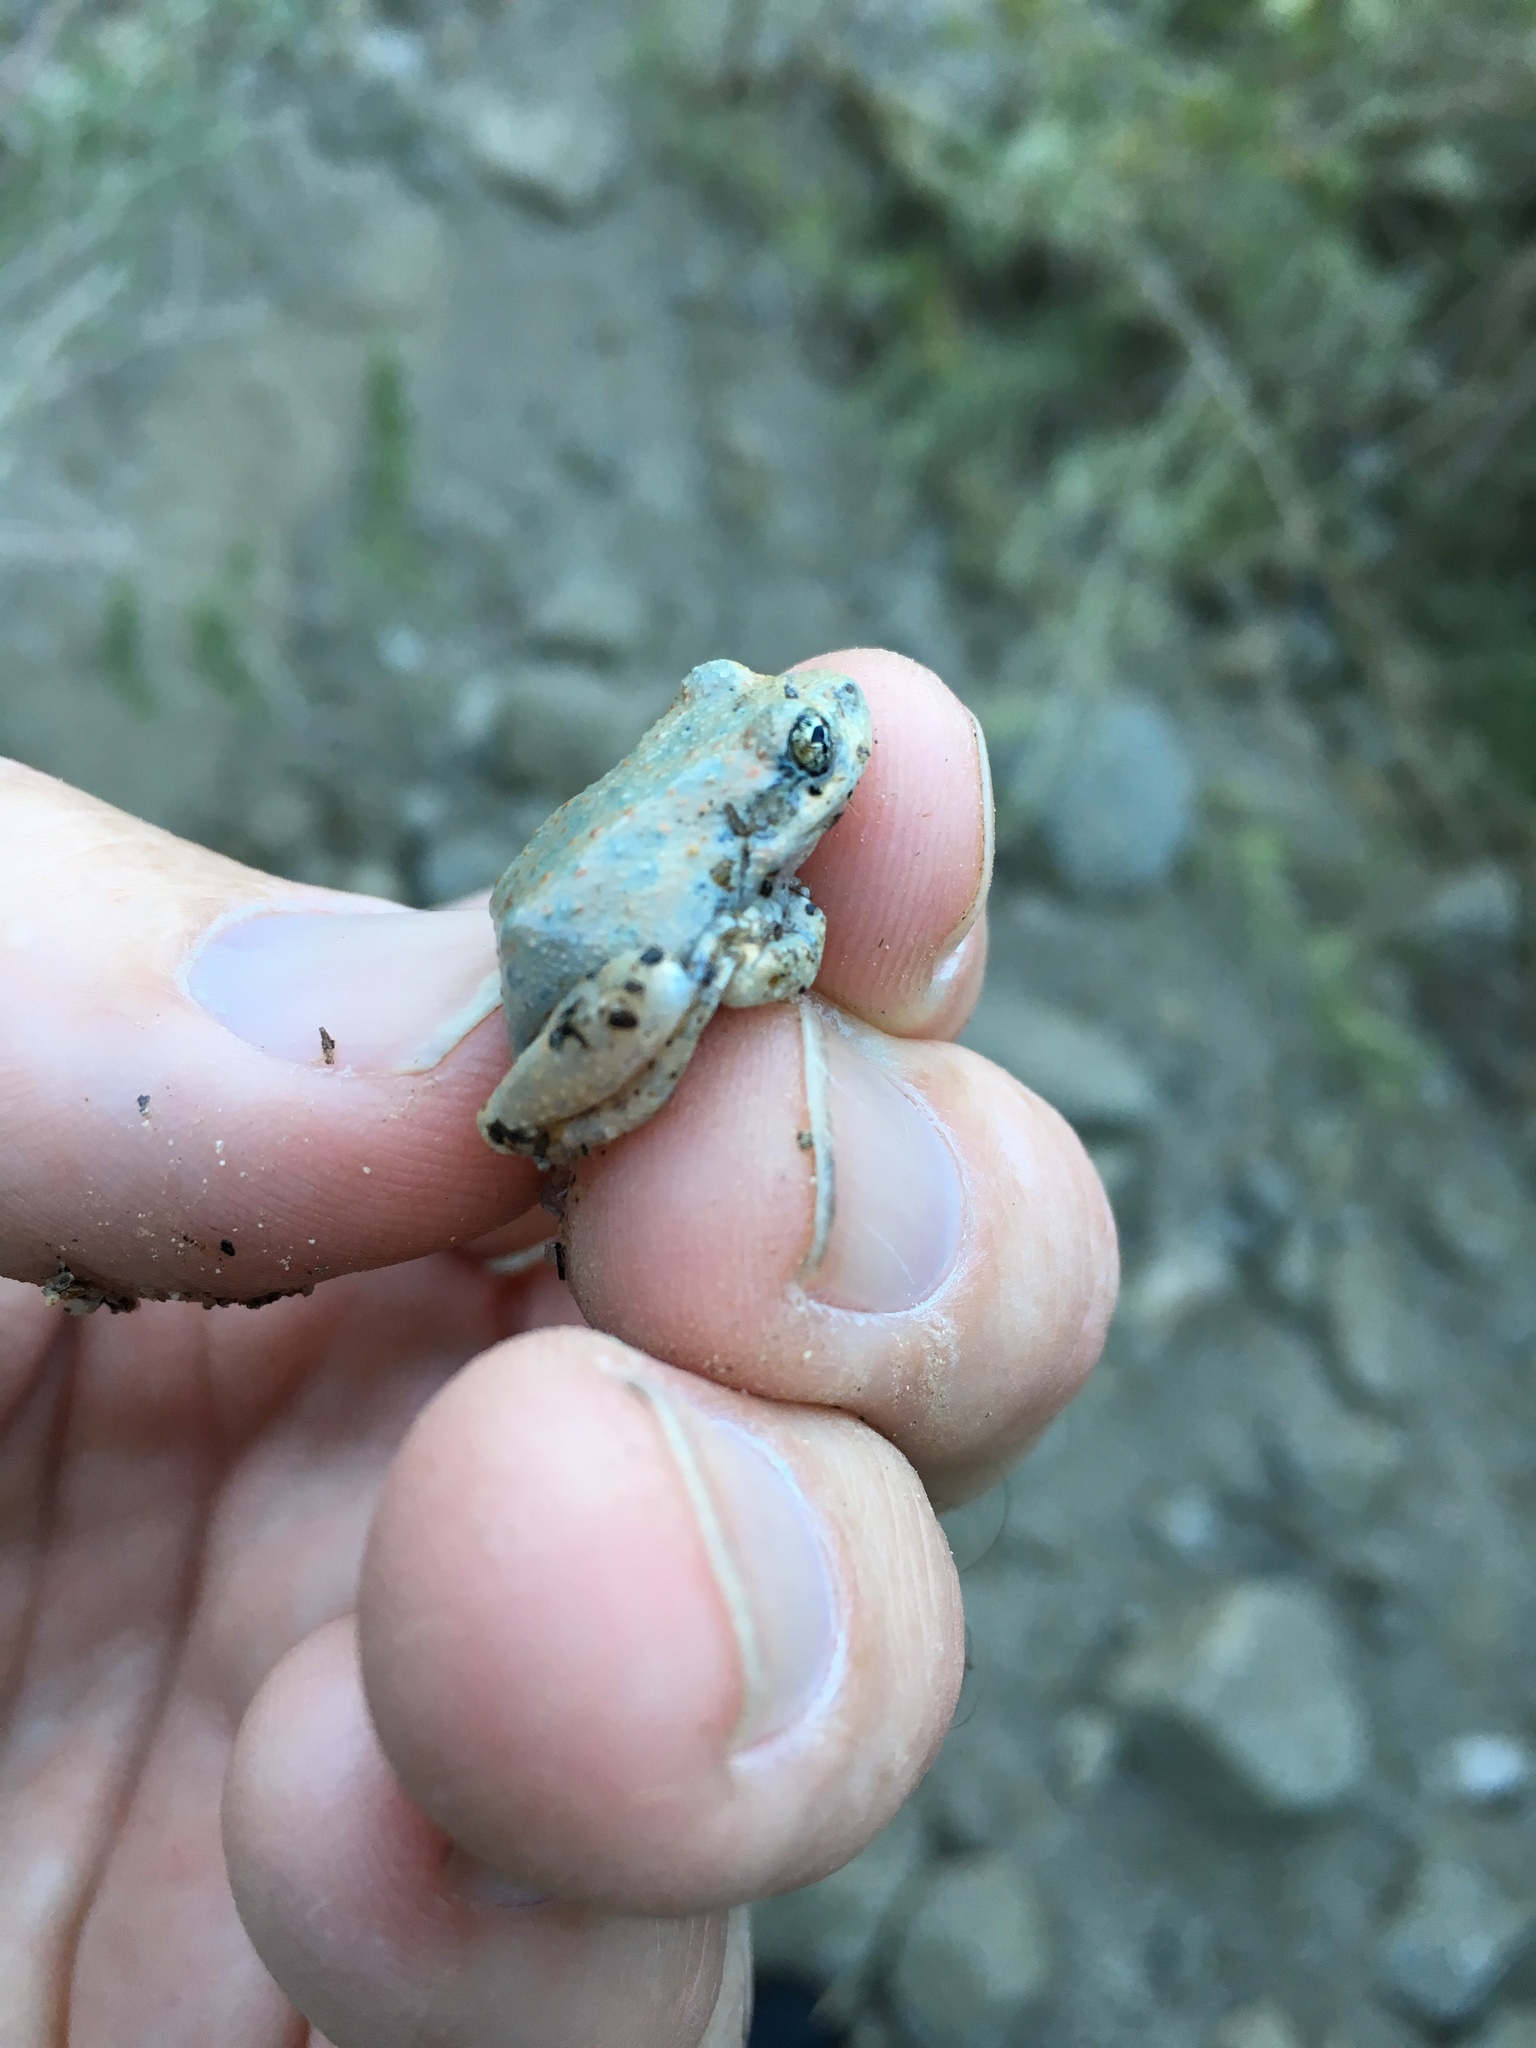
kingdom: Animalia
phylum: Chordata
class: Amphibia
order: Anura
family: Hylidae
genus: Pseudacris
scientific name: Pseudacris cadaverina
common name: California chorus frog
